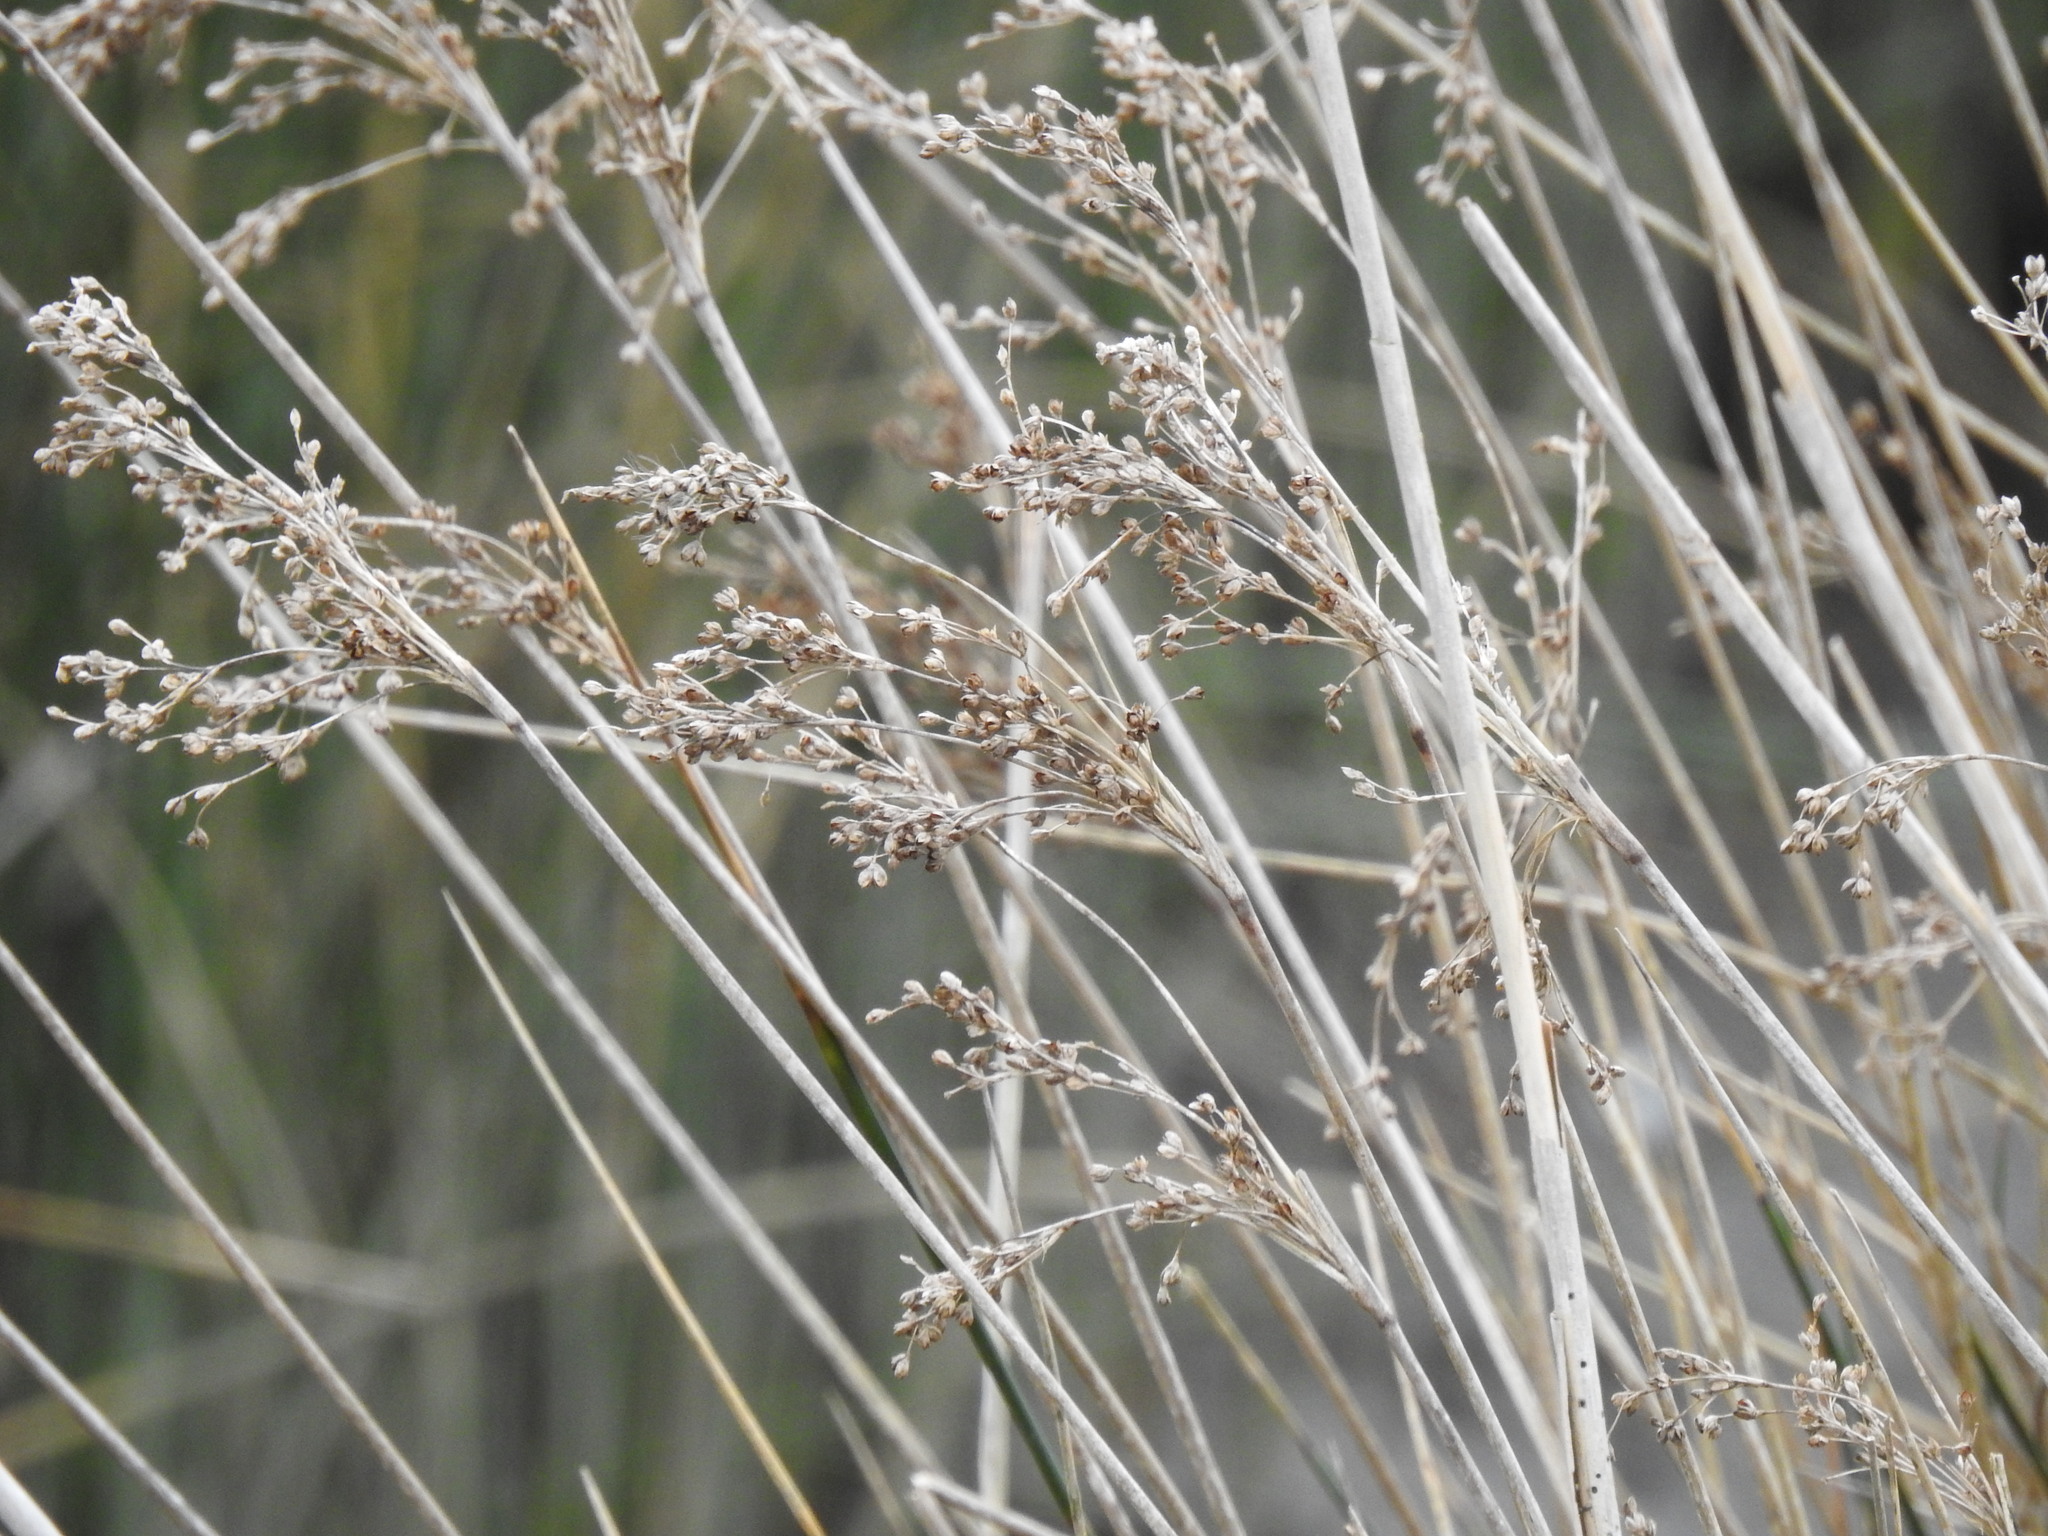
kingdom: Plantae
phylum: Tracheophyta
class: Liliopsida
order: Poales
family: Juncaceae
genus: Juncus
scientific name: Juncus maritimus
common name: Sea rush
